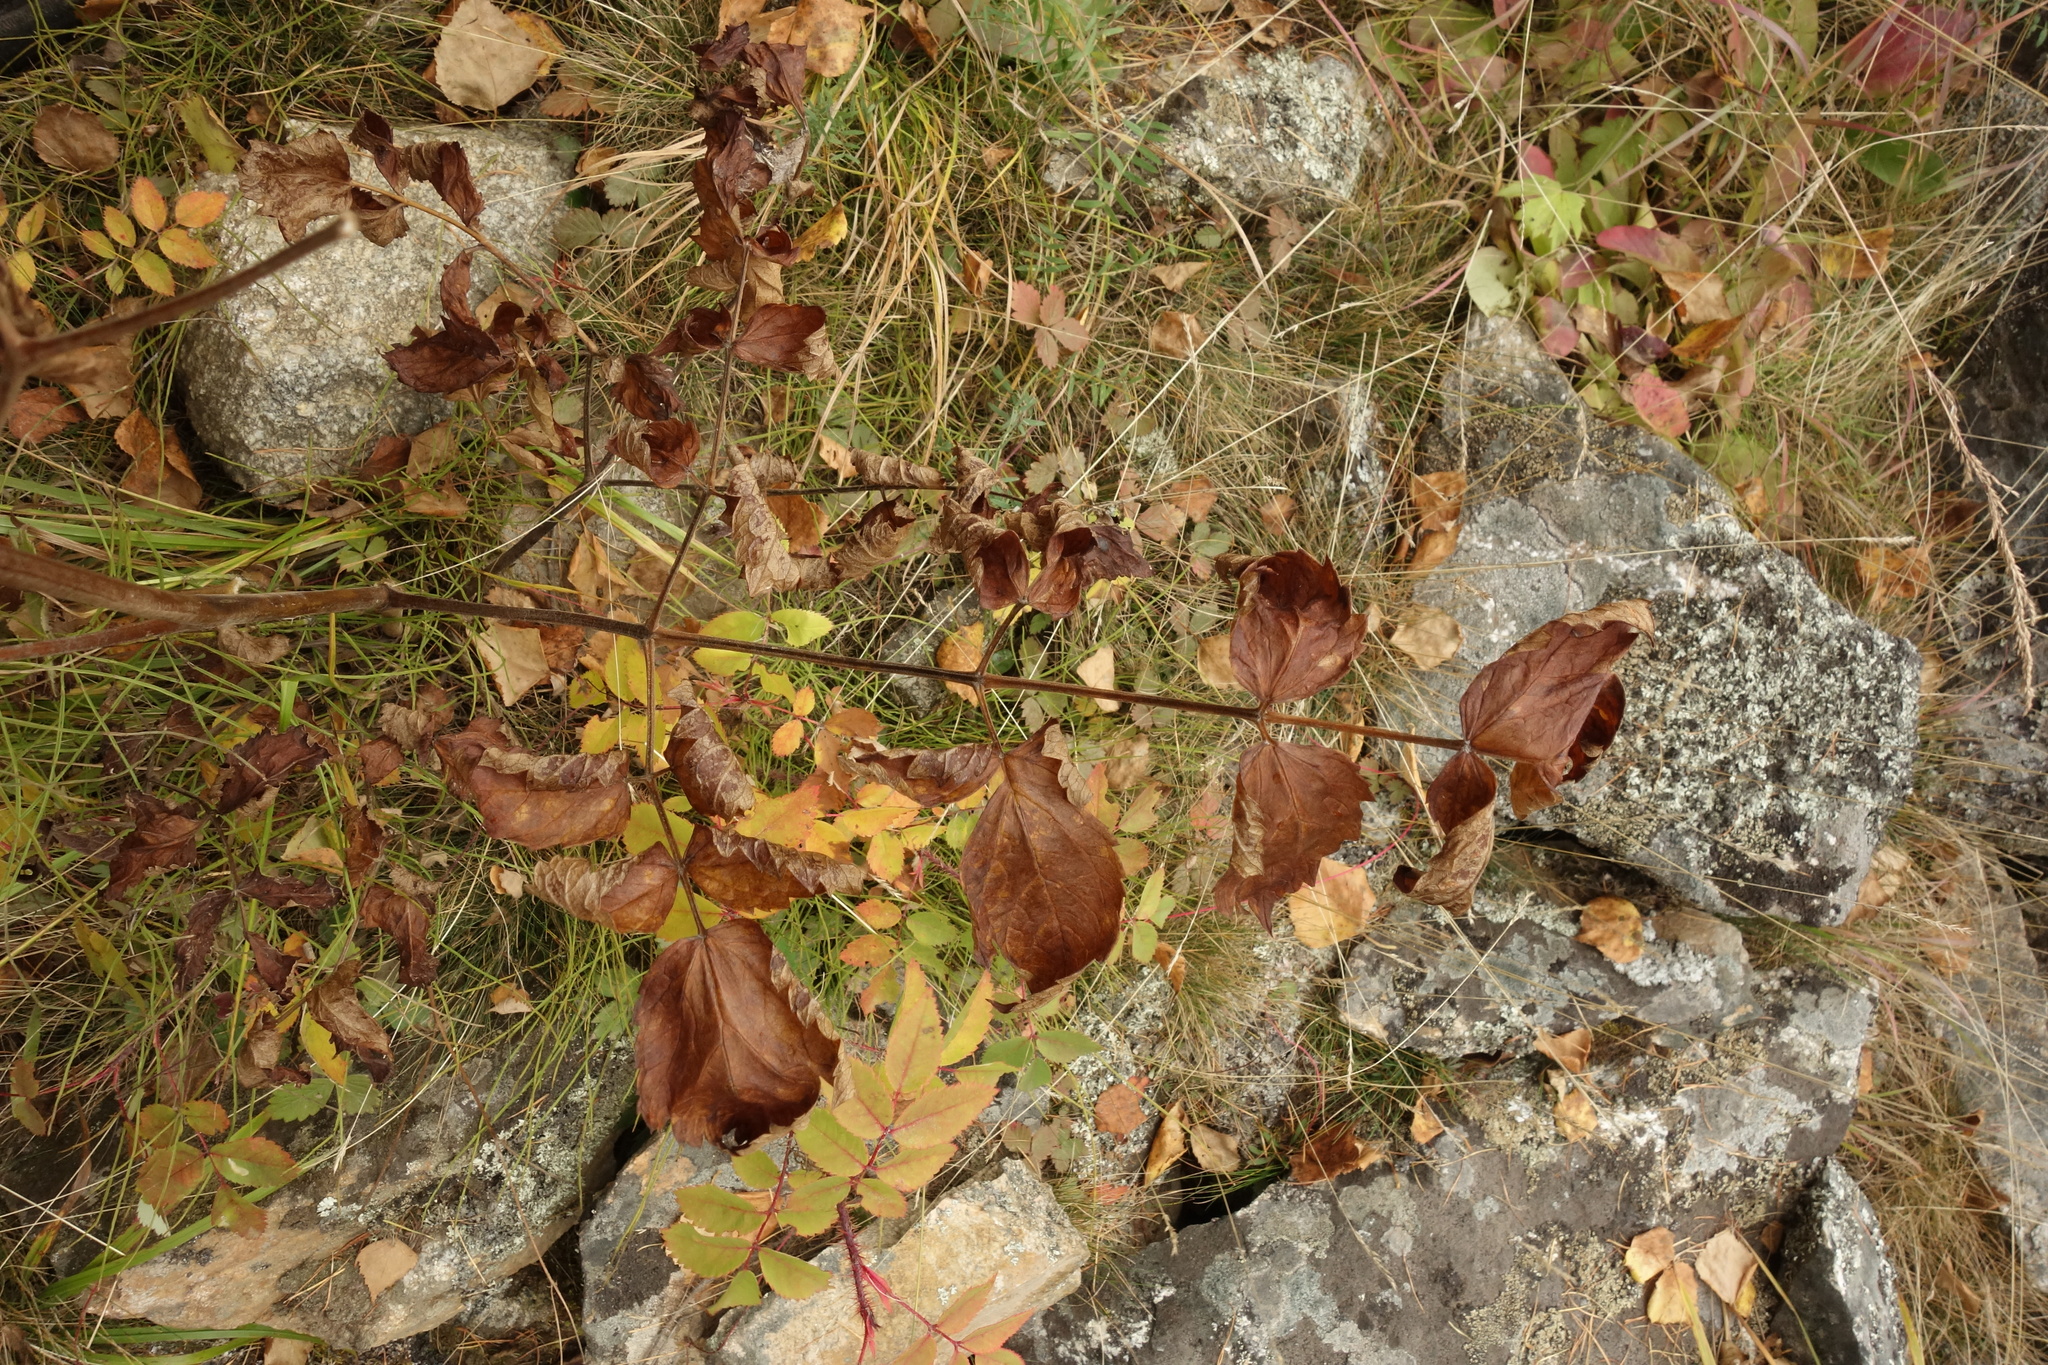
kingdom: Plantae
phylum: Tracheophyta
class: Magnoliopsida
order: Ranunculales
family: Ranunculaceae
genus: Actaea
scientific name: Actaea cimicifuga
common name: Chinese cimicifuga
